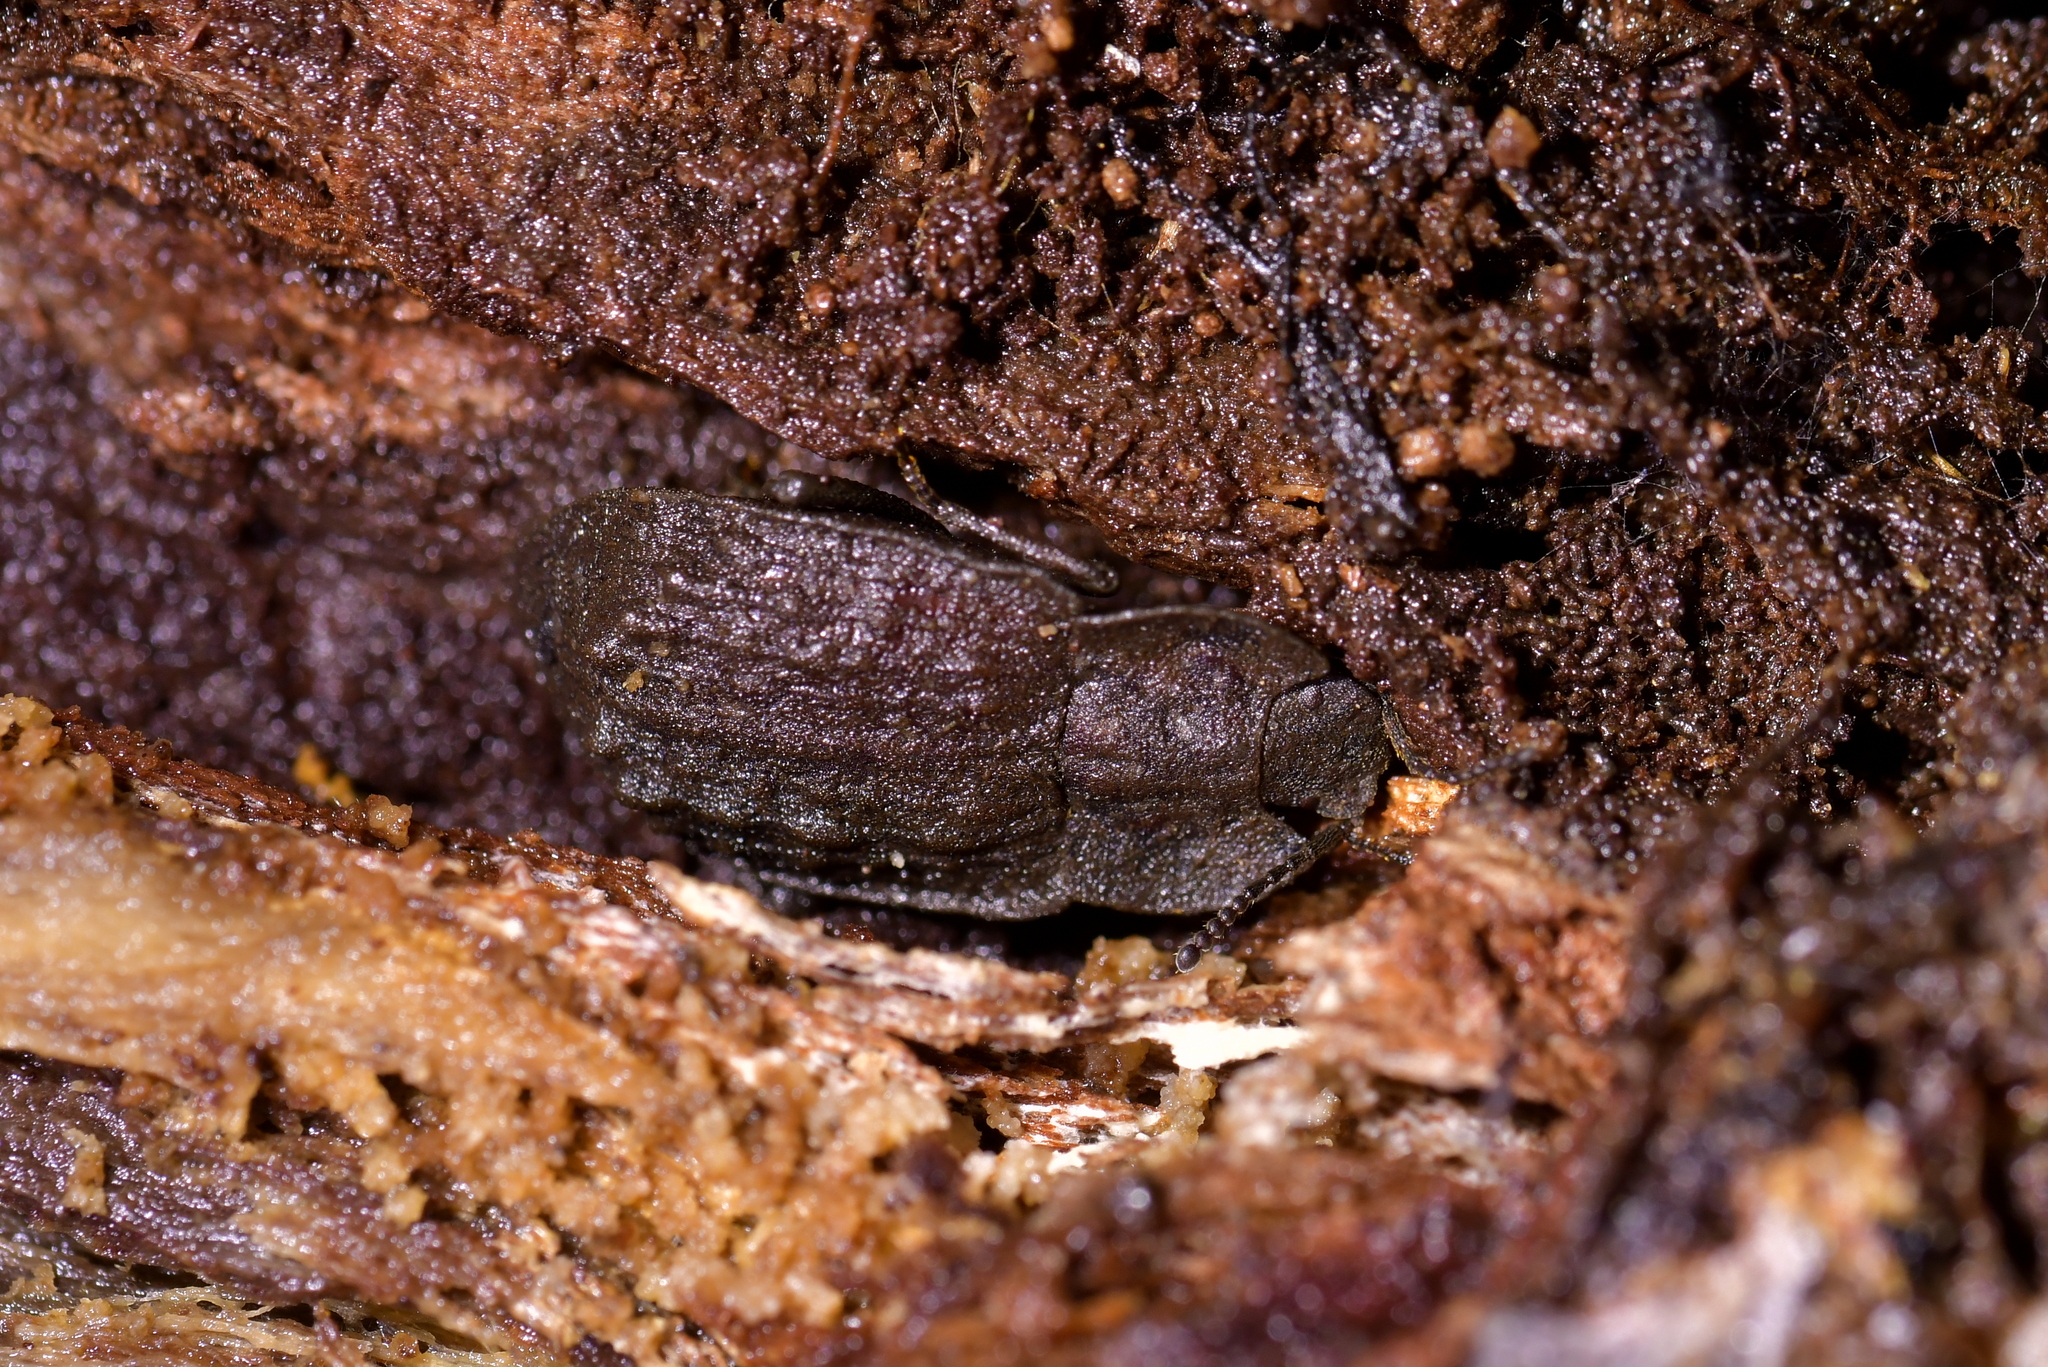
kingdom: Animalia
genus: Mitua
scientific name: Mitua
